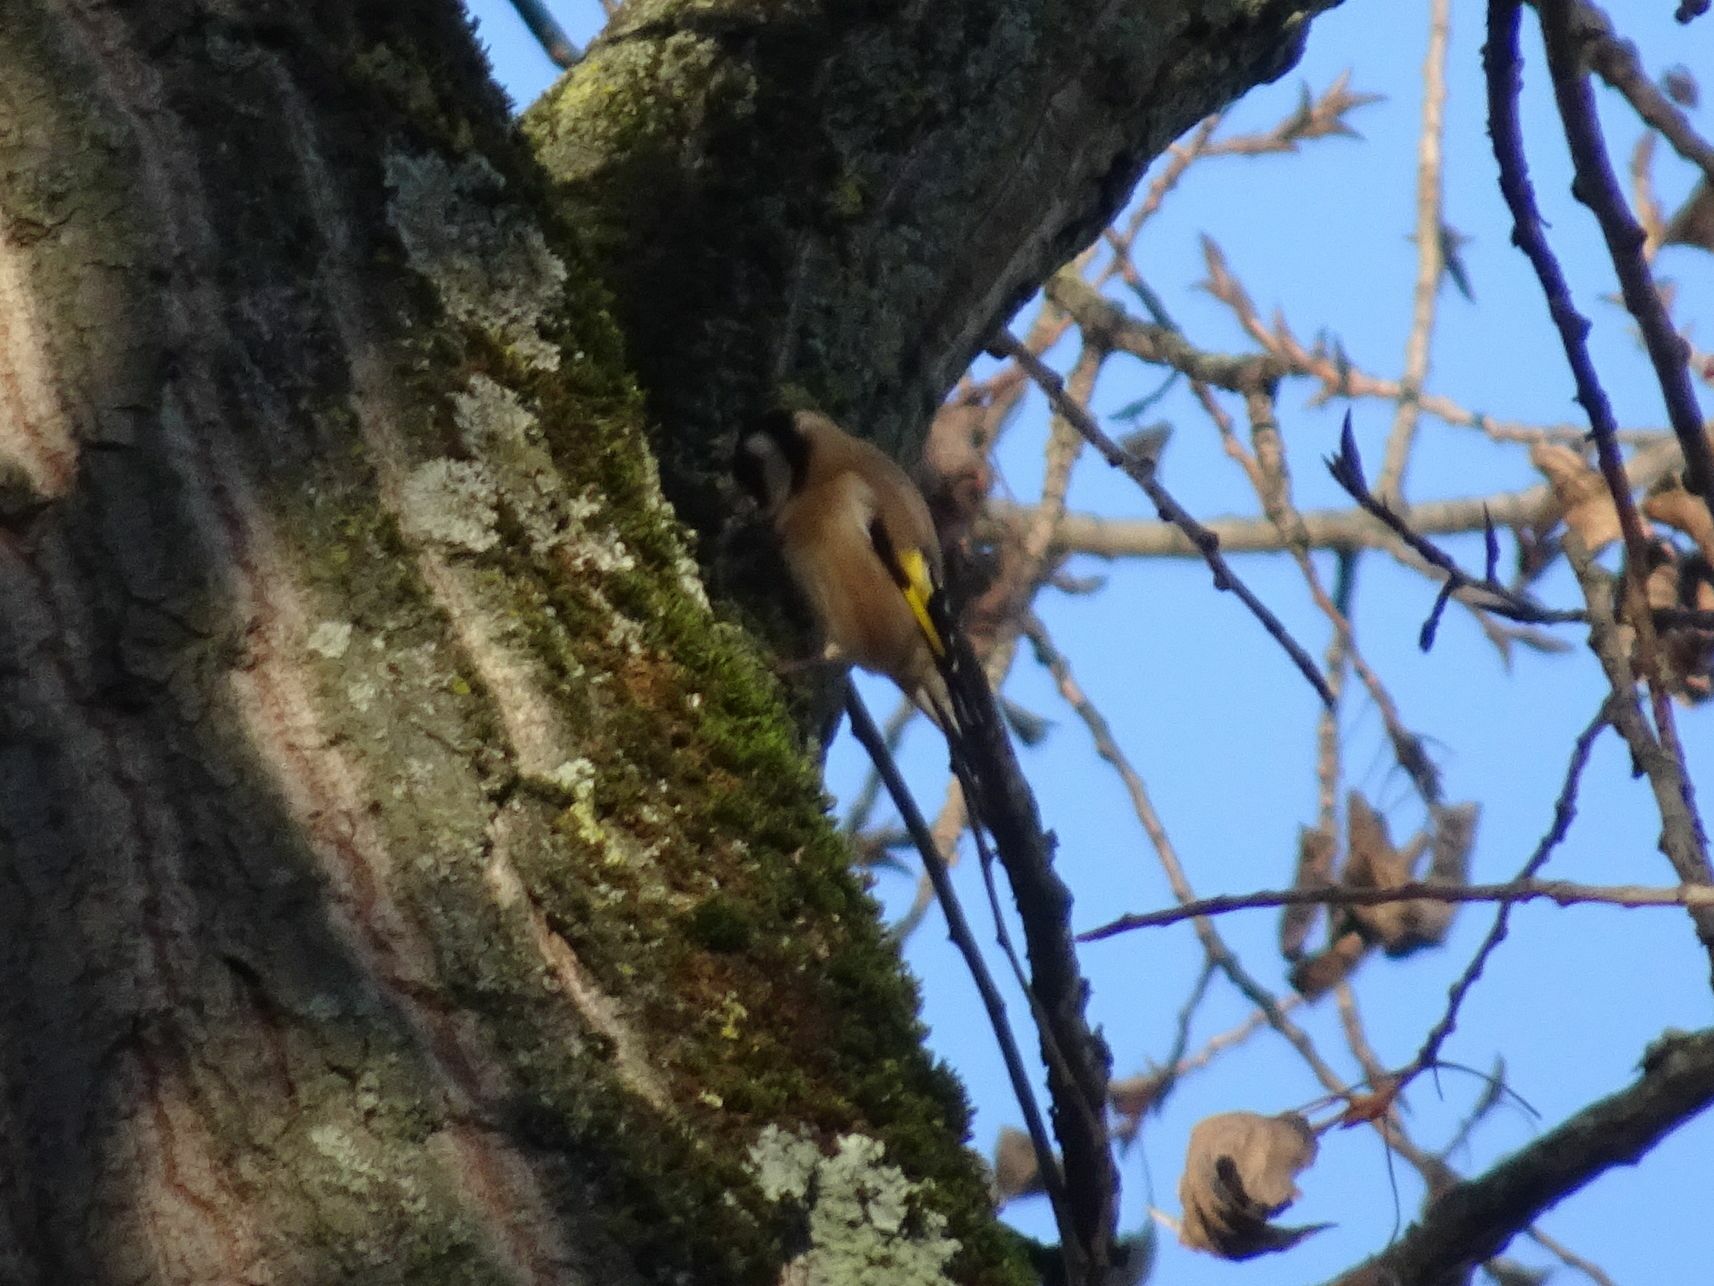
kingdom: Animalia
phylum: Chordata
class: Aves
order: Passeriformes
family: Fringillidae
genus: Carduelis
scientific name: Carduelis carduelis
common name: European goldfinch
